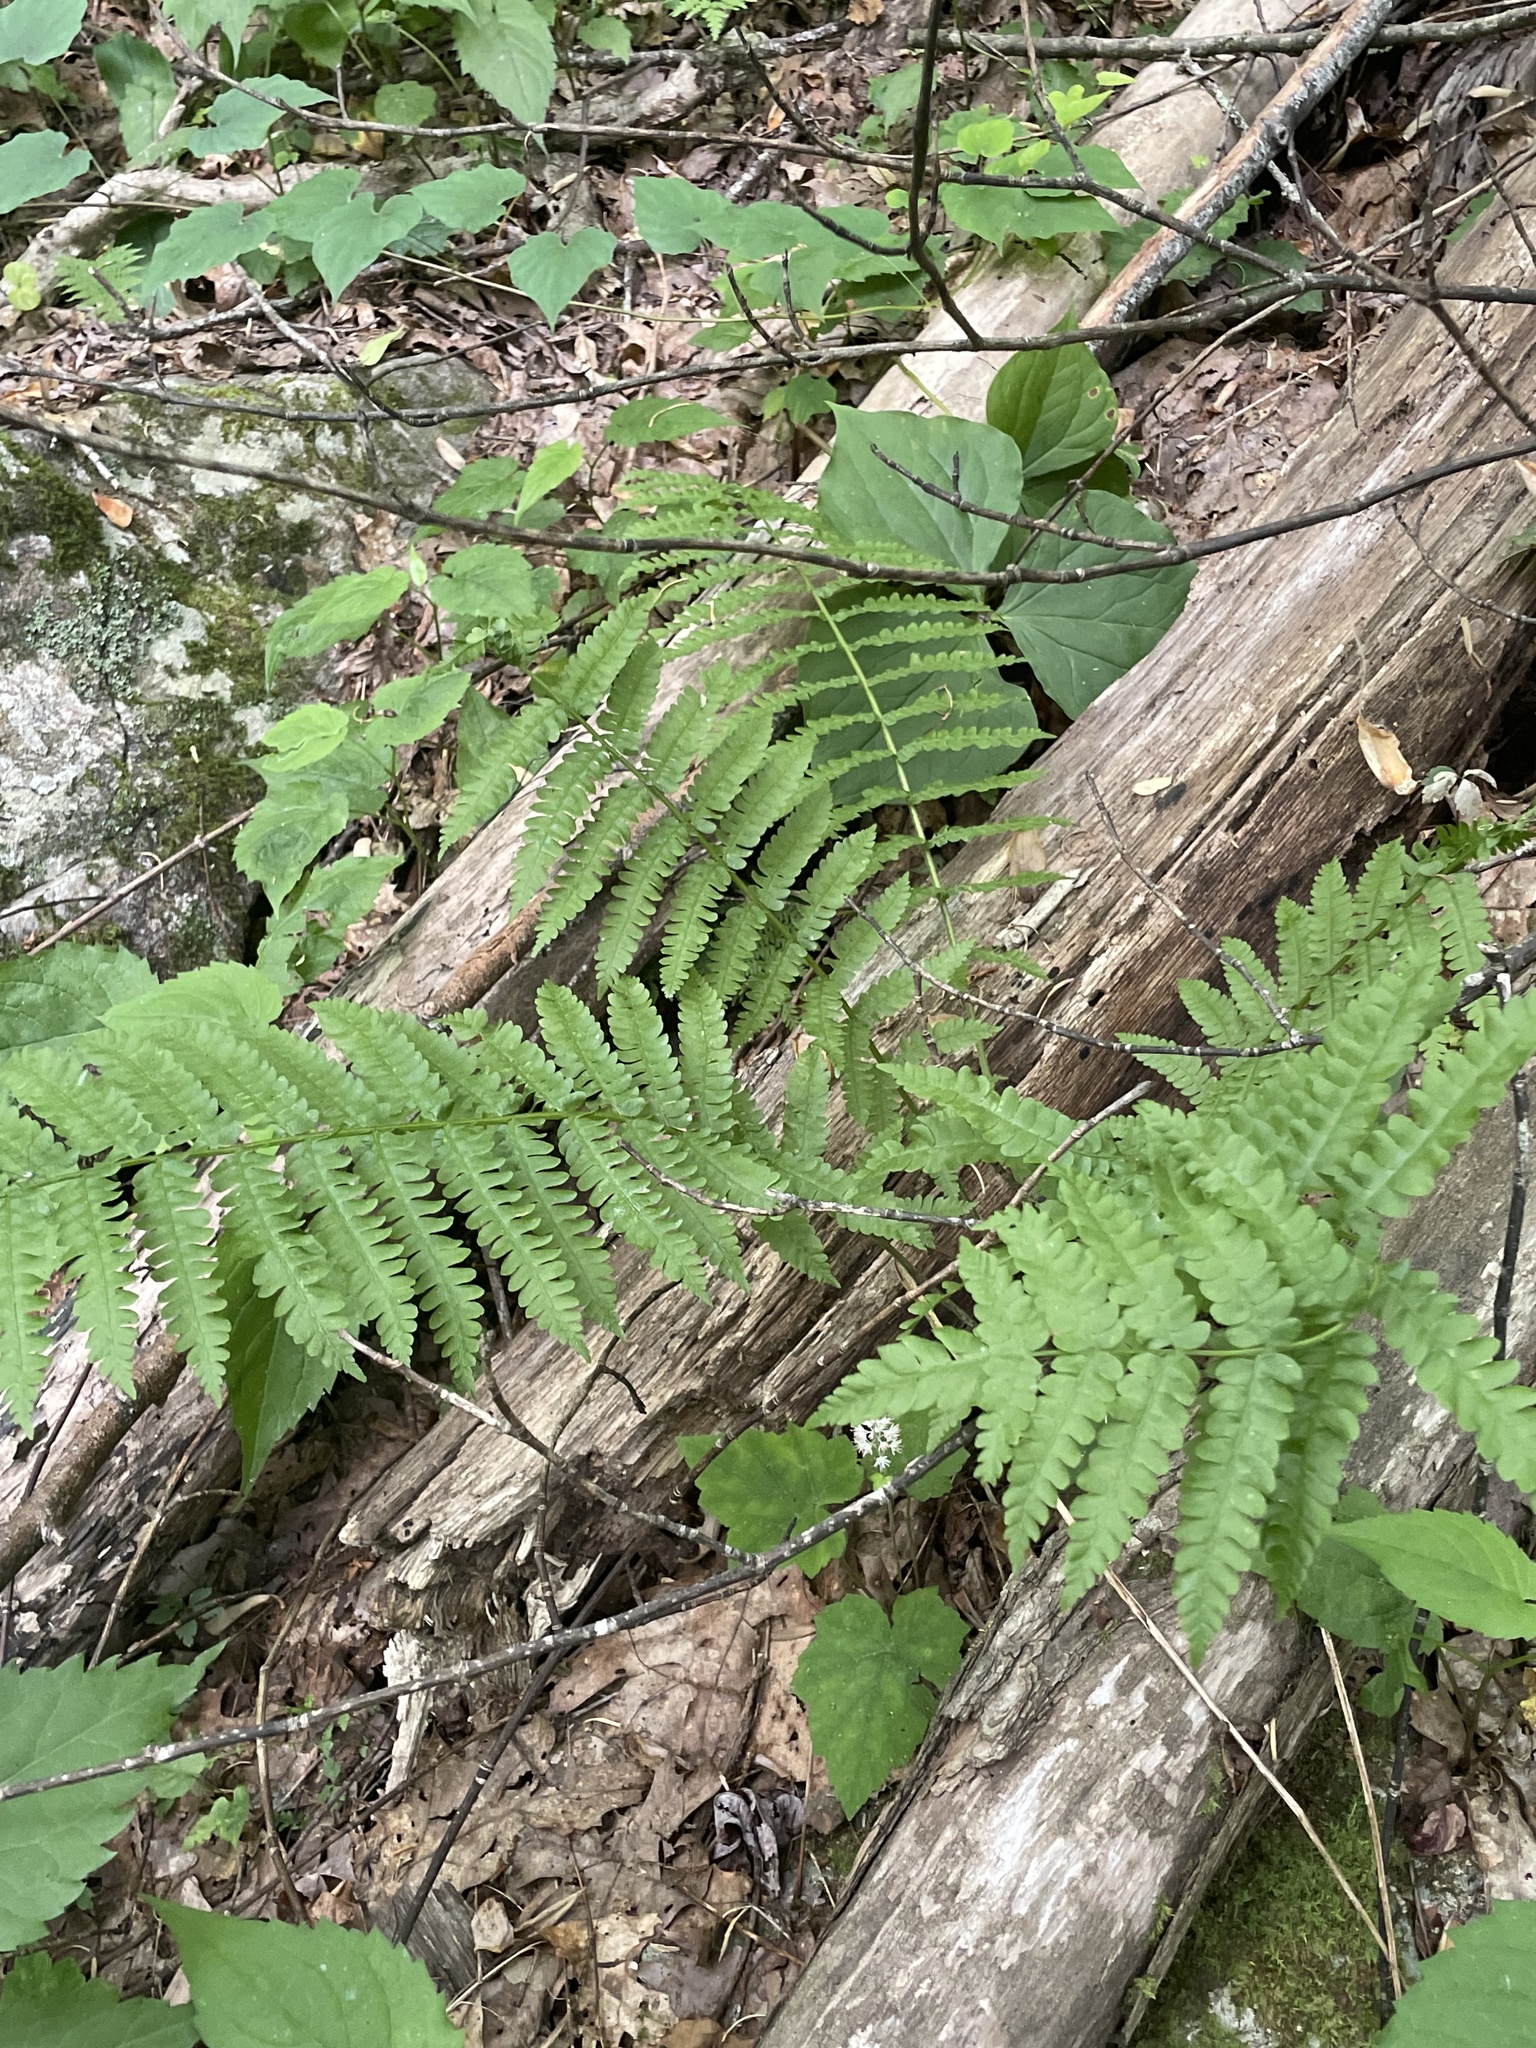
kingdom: Plantae
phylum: Tracheophyta
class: Polypodiopsida
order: Osmundales
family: Osmundaceae
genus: Osmundastrum
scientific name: Osmundastrum cinnamomeum
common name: Cinnamon fern
